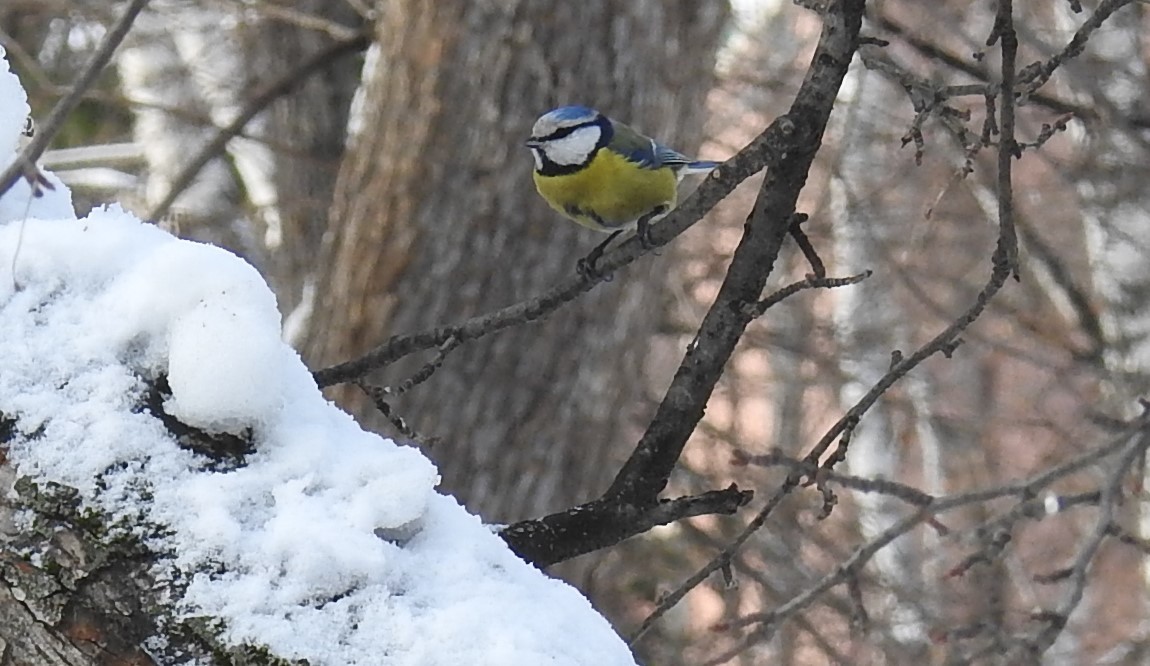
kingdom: Animalia
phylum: Chordata
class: Aves
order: Passeriformes
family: Paridae
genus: Cyanistes
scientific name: Cyanistes caeruleus
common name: Eurasian blue tit
